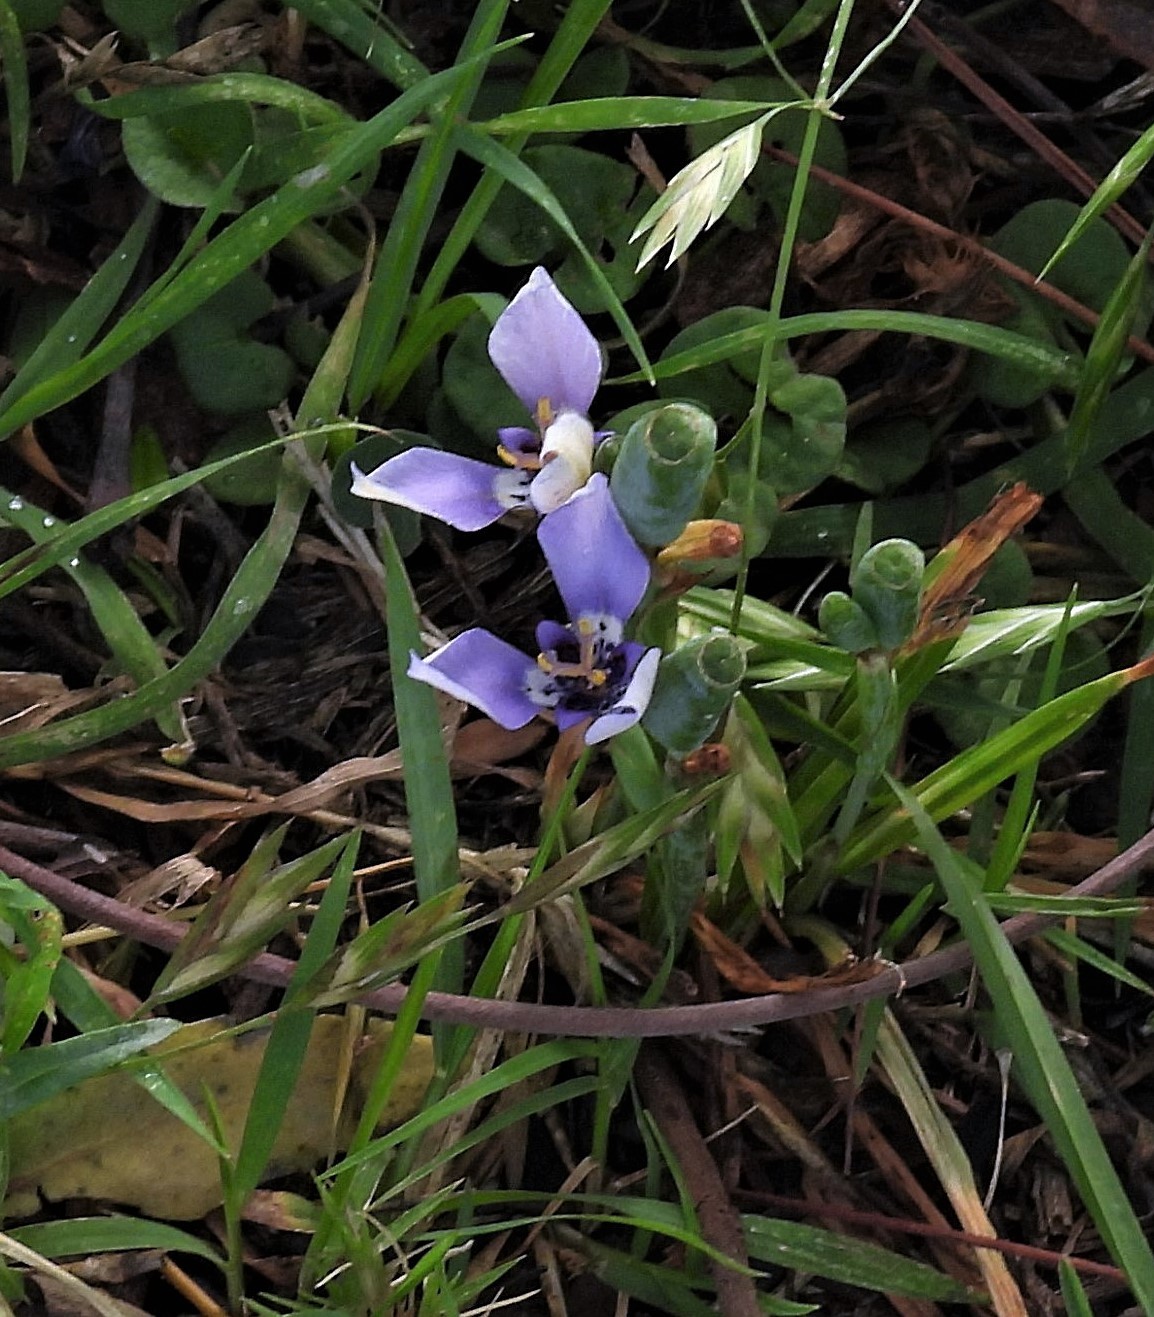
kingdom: Plantae
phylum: Tracheophyta
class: Liliopsida
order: Asparagales
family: Iridaceae
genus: Herbertia
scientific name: Herbertia lahue
